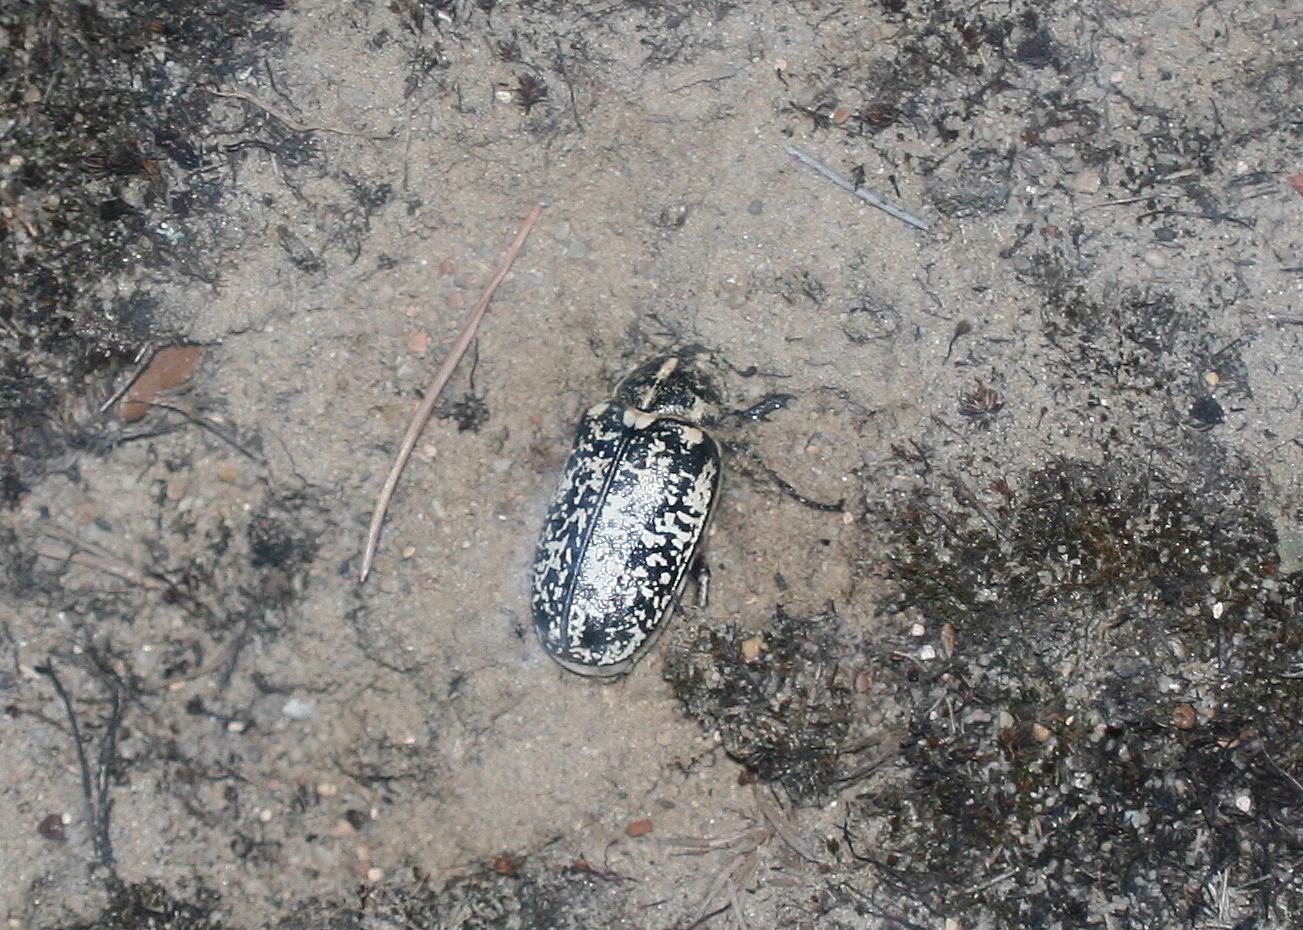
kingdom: Animalia
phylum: Arthropoda
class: Insecta
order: Coleoptera
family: Scarabaeidae
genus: Polyphylla
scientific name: Polyphylla fullo
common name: Pine chafer
